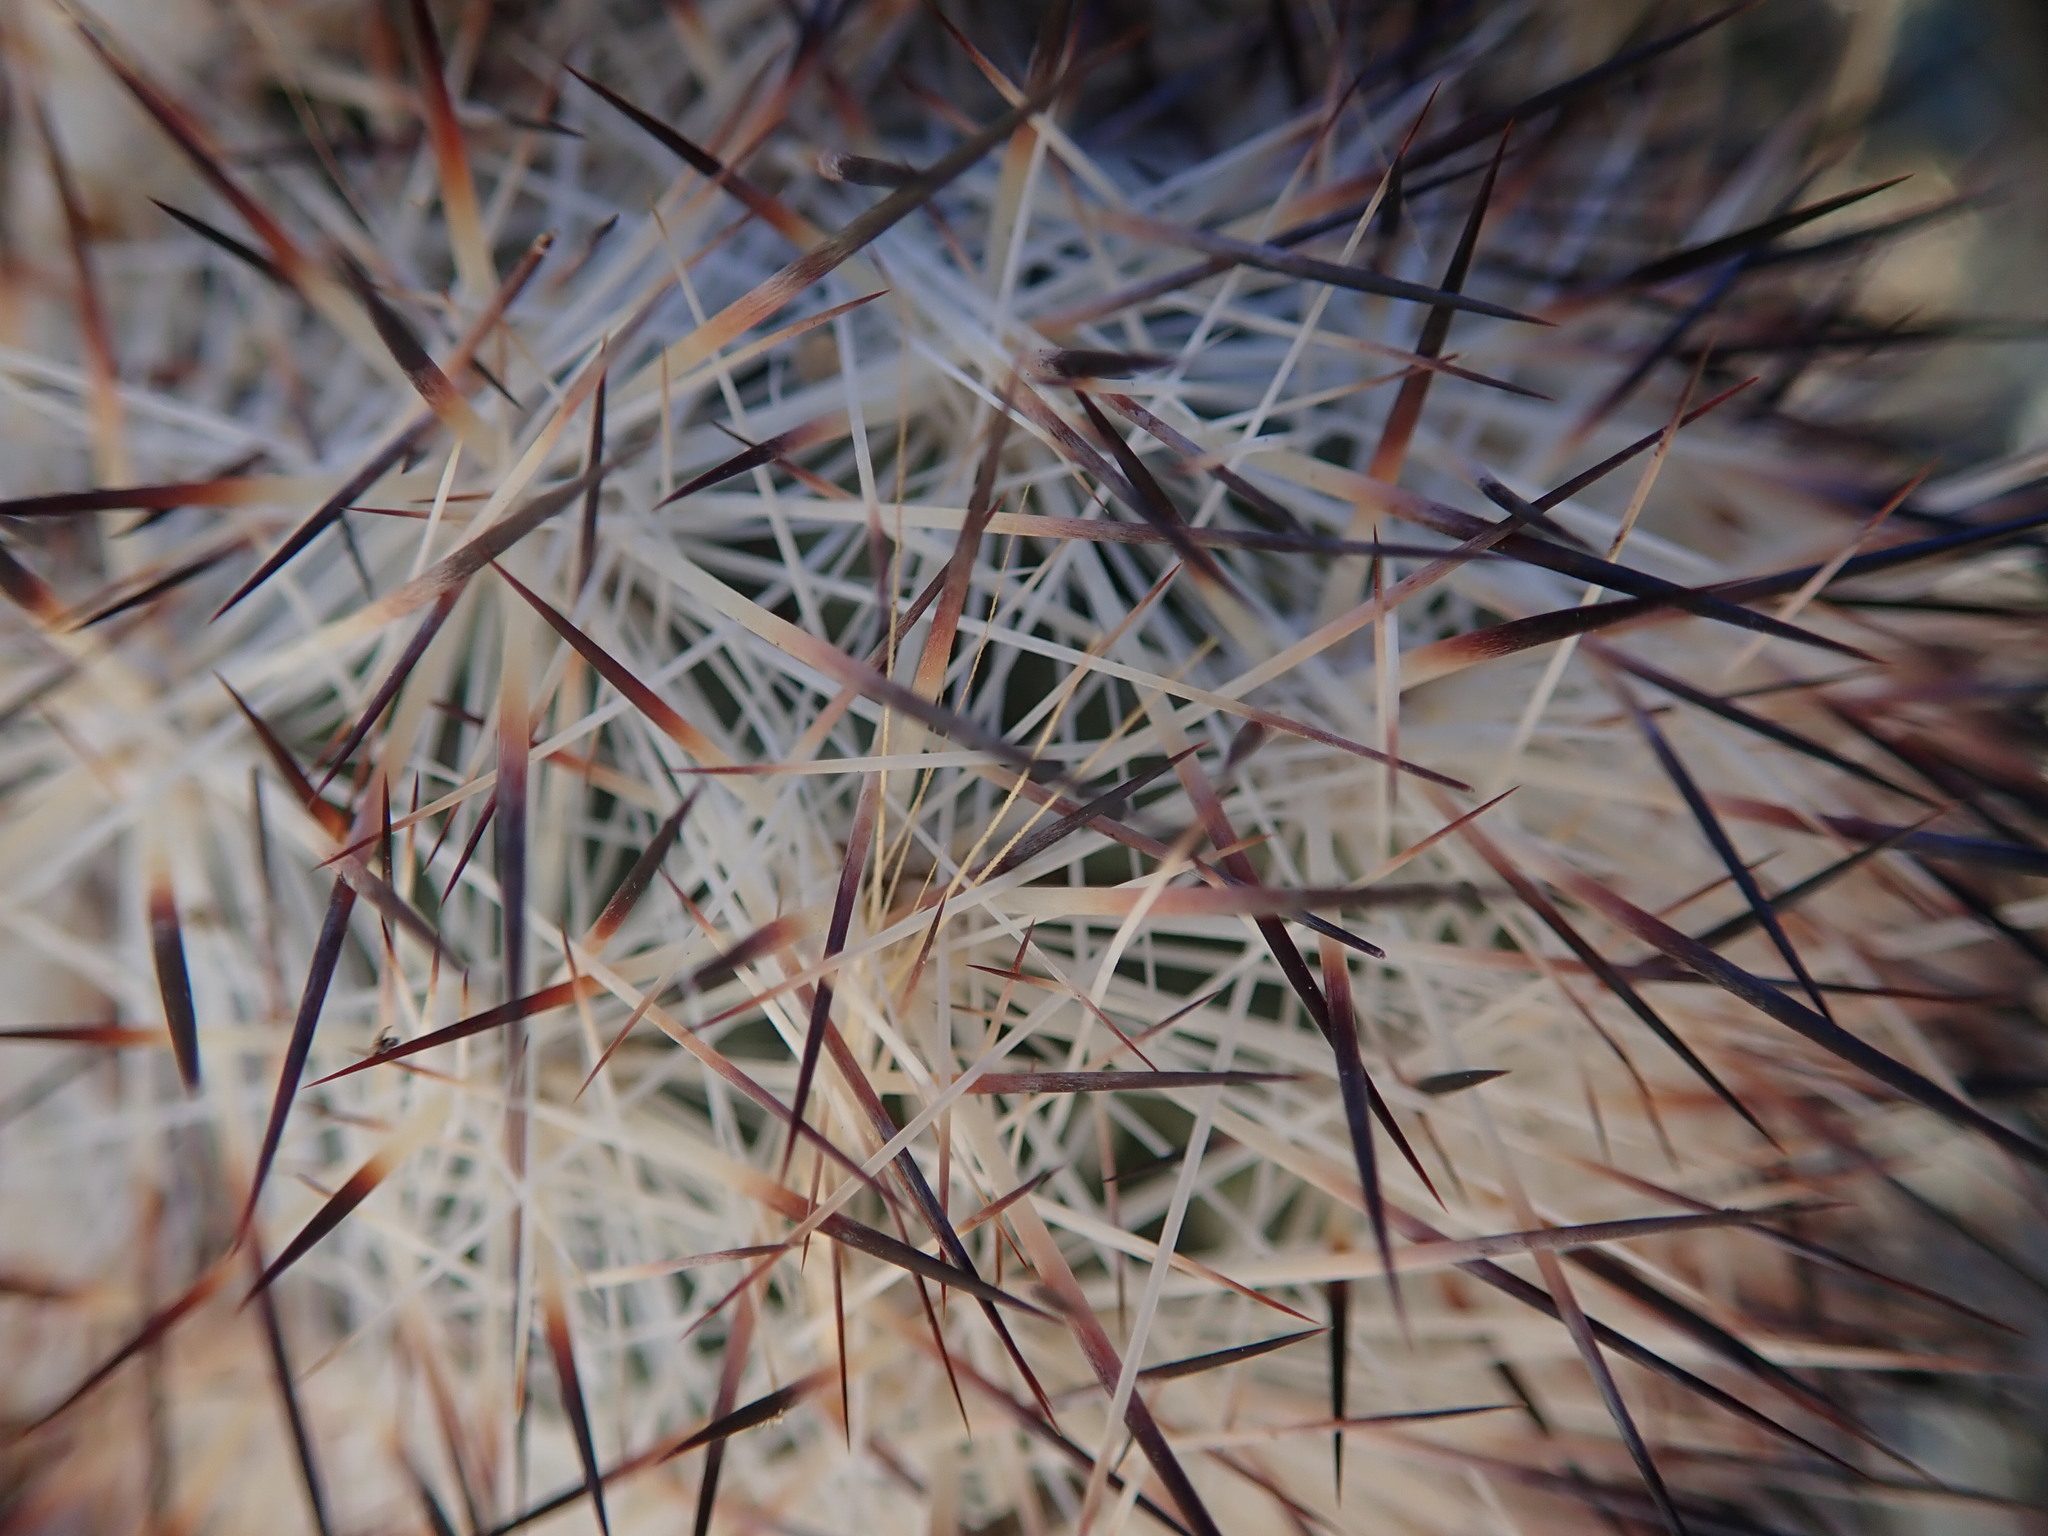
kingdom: Plantae
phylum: Tracheophyta
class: Magnoliopsida
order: Caryophyllales
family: Cactaceae
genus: Pelecyphora
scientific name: Pelecyphora alversonii
